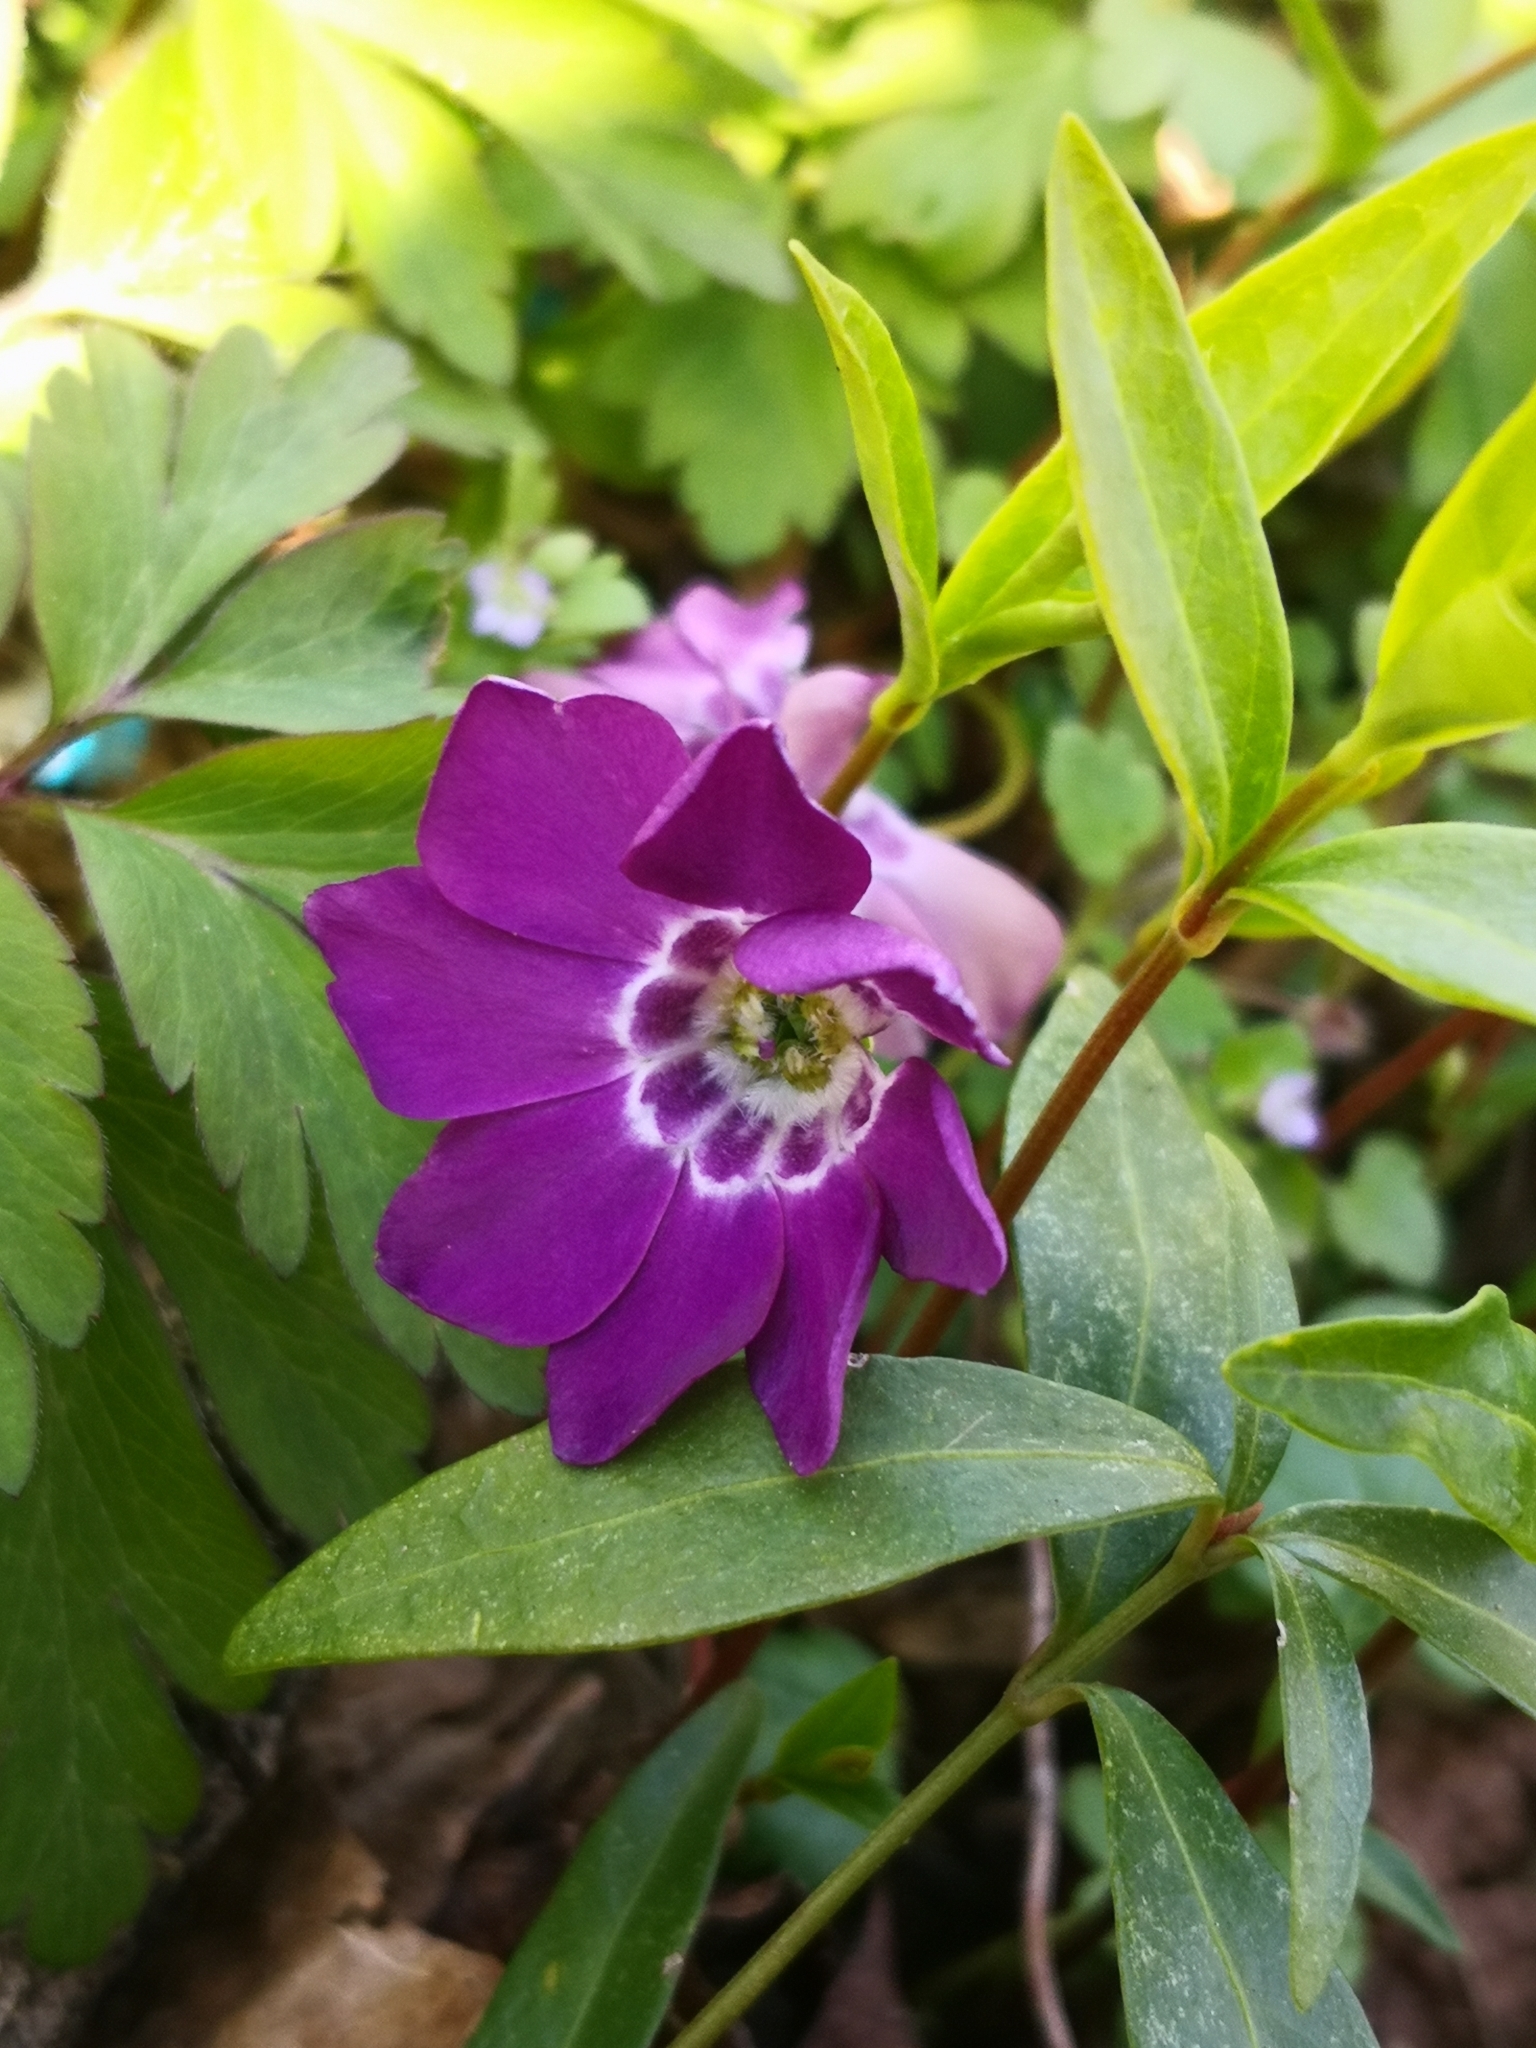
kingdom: Plantae
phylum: Tracheophyta
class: Magnoliopsida
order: Gentianales
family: Apocynaceae
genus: Vinca
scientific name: Vinca minor
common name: Lesser periwinkle
